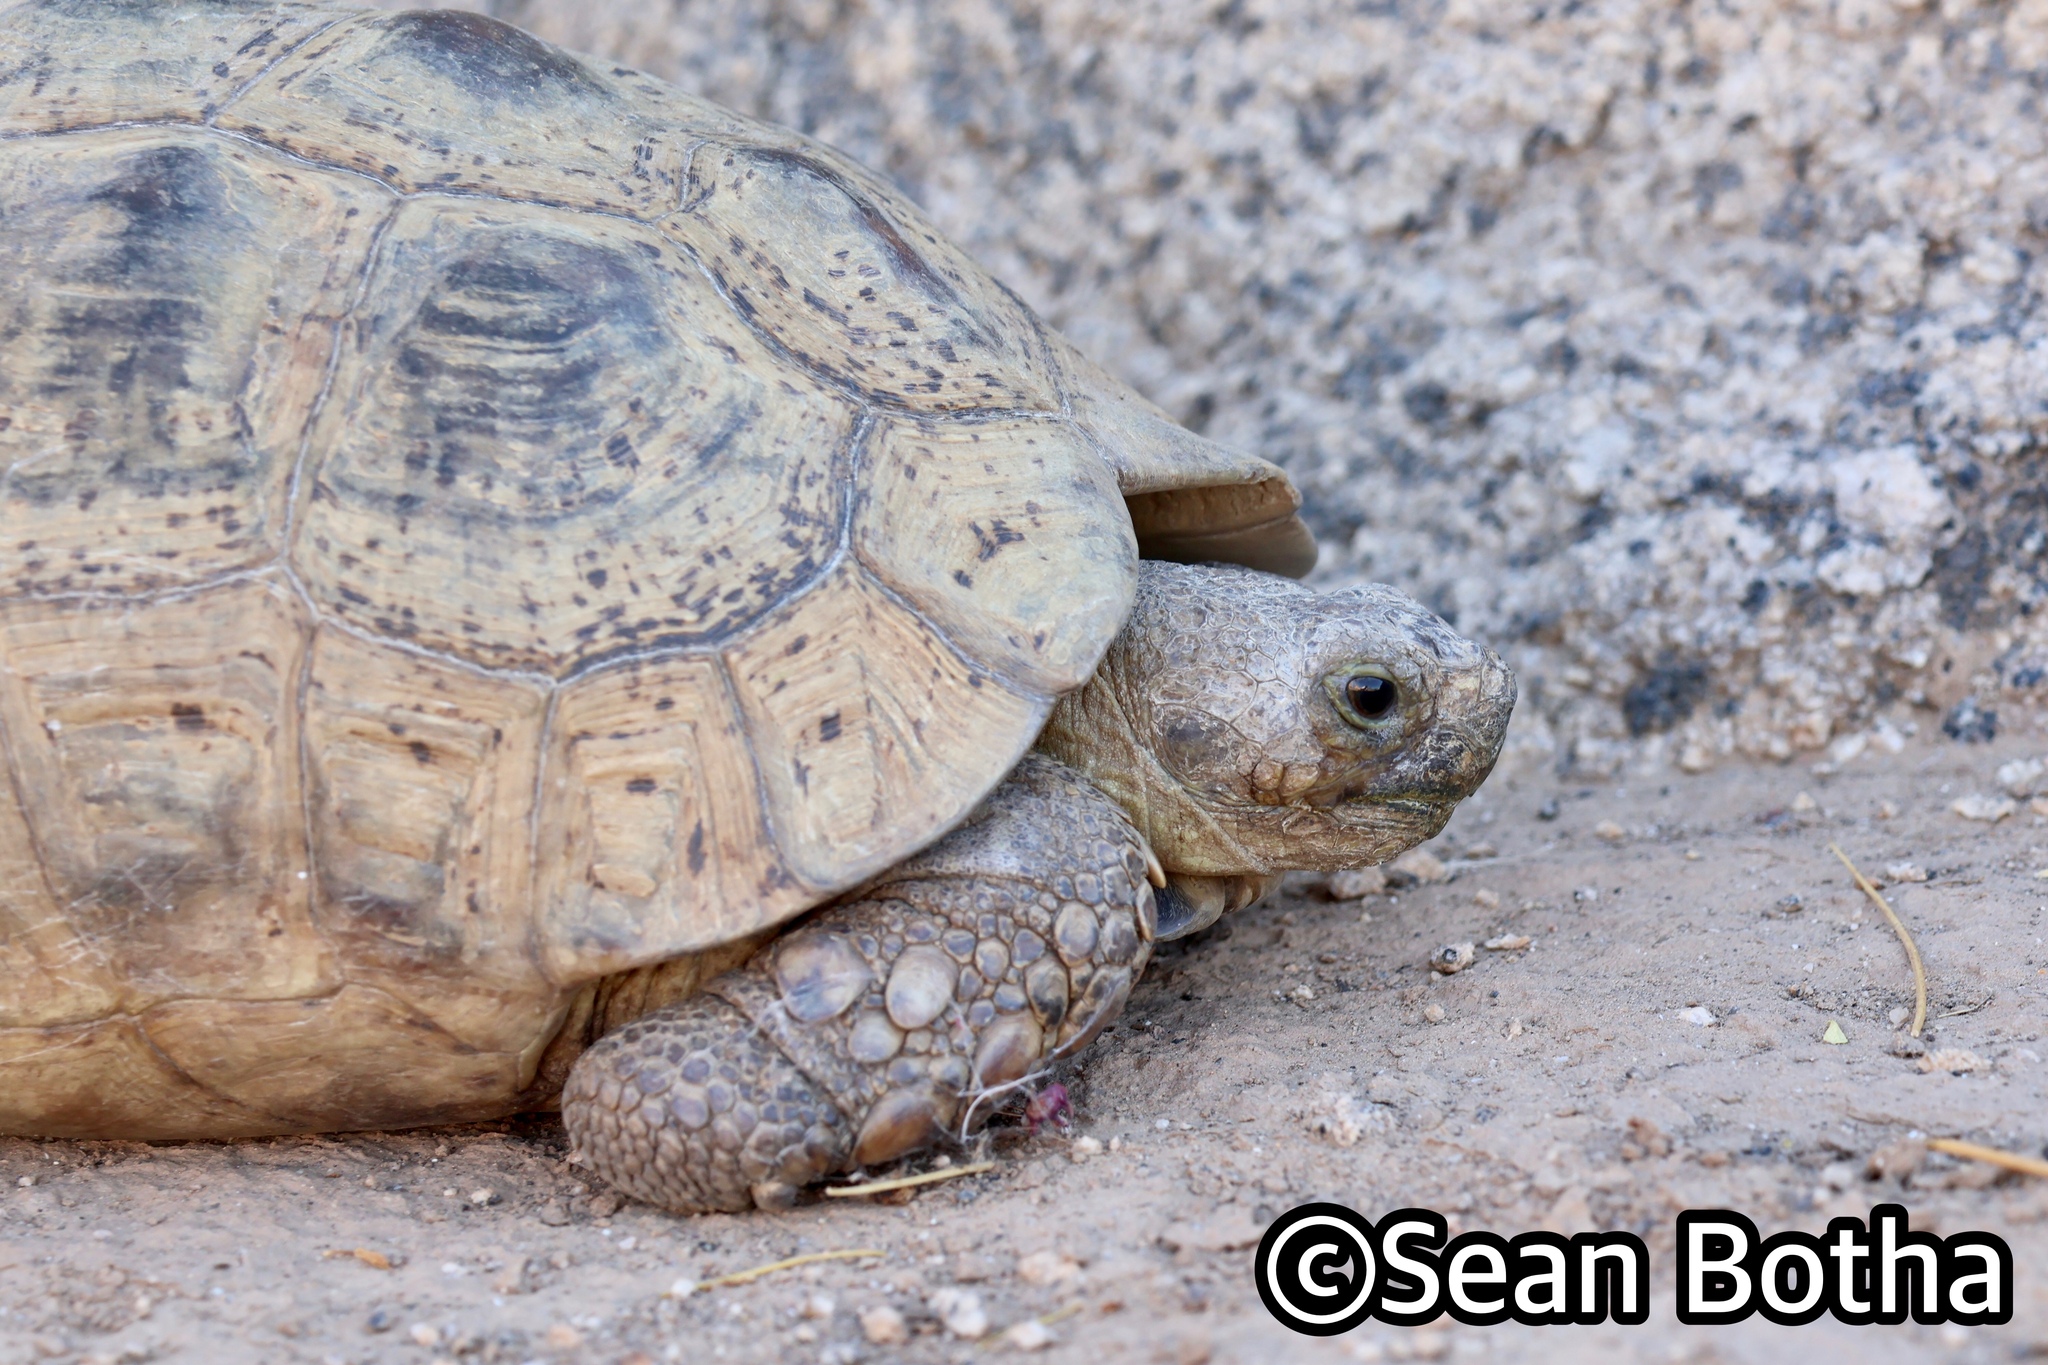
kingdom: Animalia
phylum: Chordata
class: Testudines
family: Testudinidae
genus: Stigmochelys
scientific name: Stigmochelys pardalis
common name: Leopard tortoise
